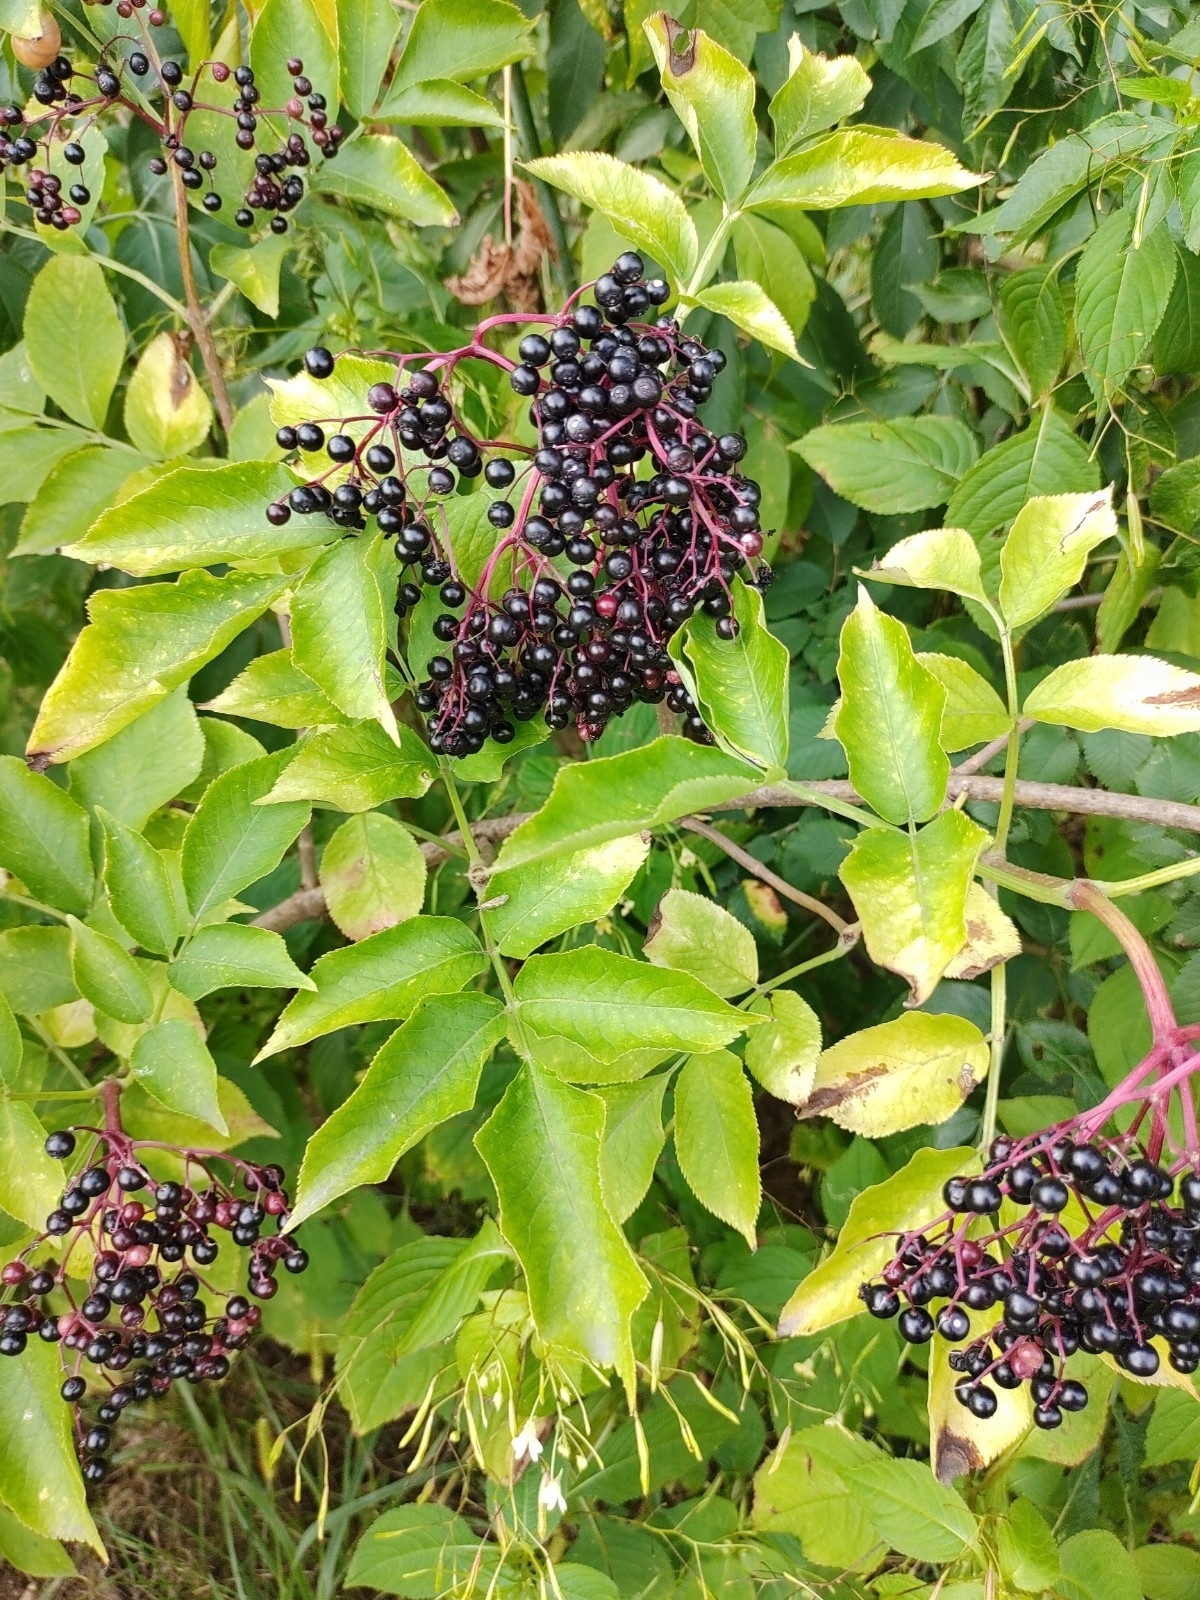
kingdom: Plantae
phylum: Tracheophyta
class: Magnoliopsida
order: Dipsacales
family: Viburnaceae
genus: Sambucus
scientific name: Sambucus nigra
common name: Elder
